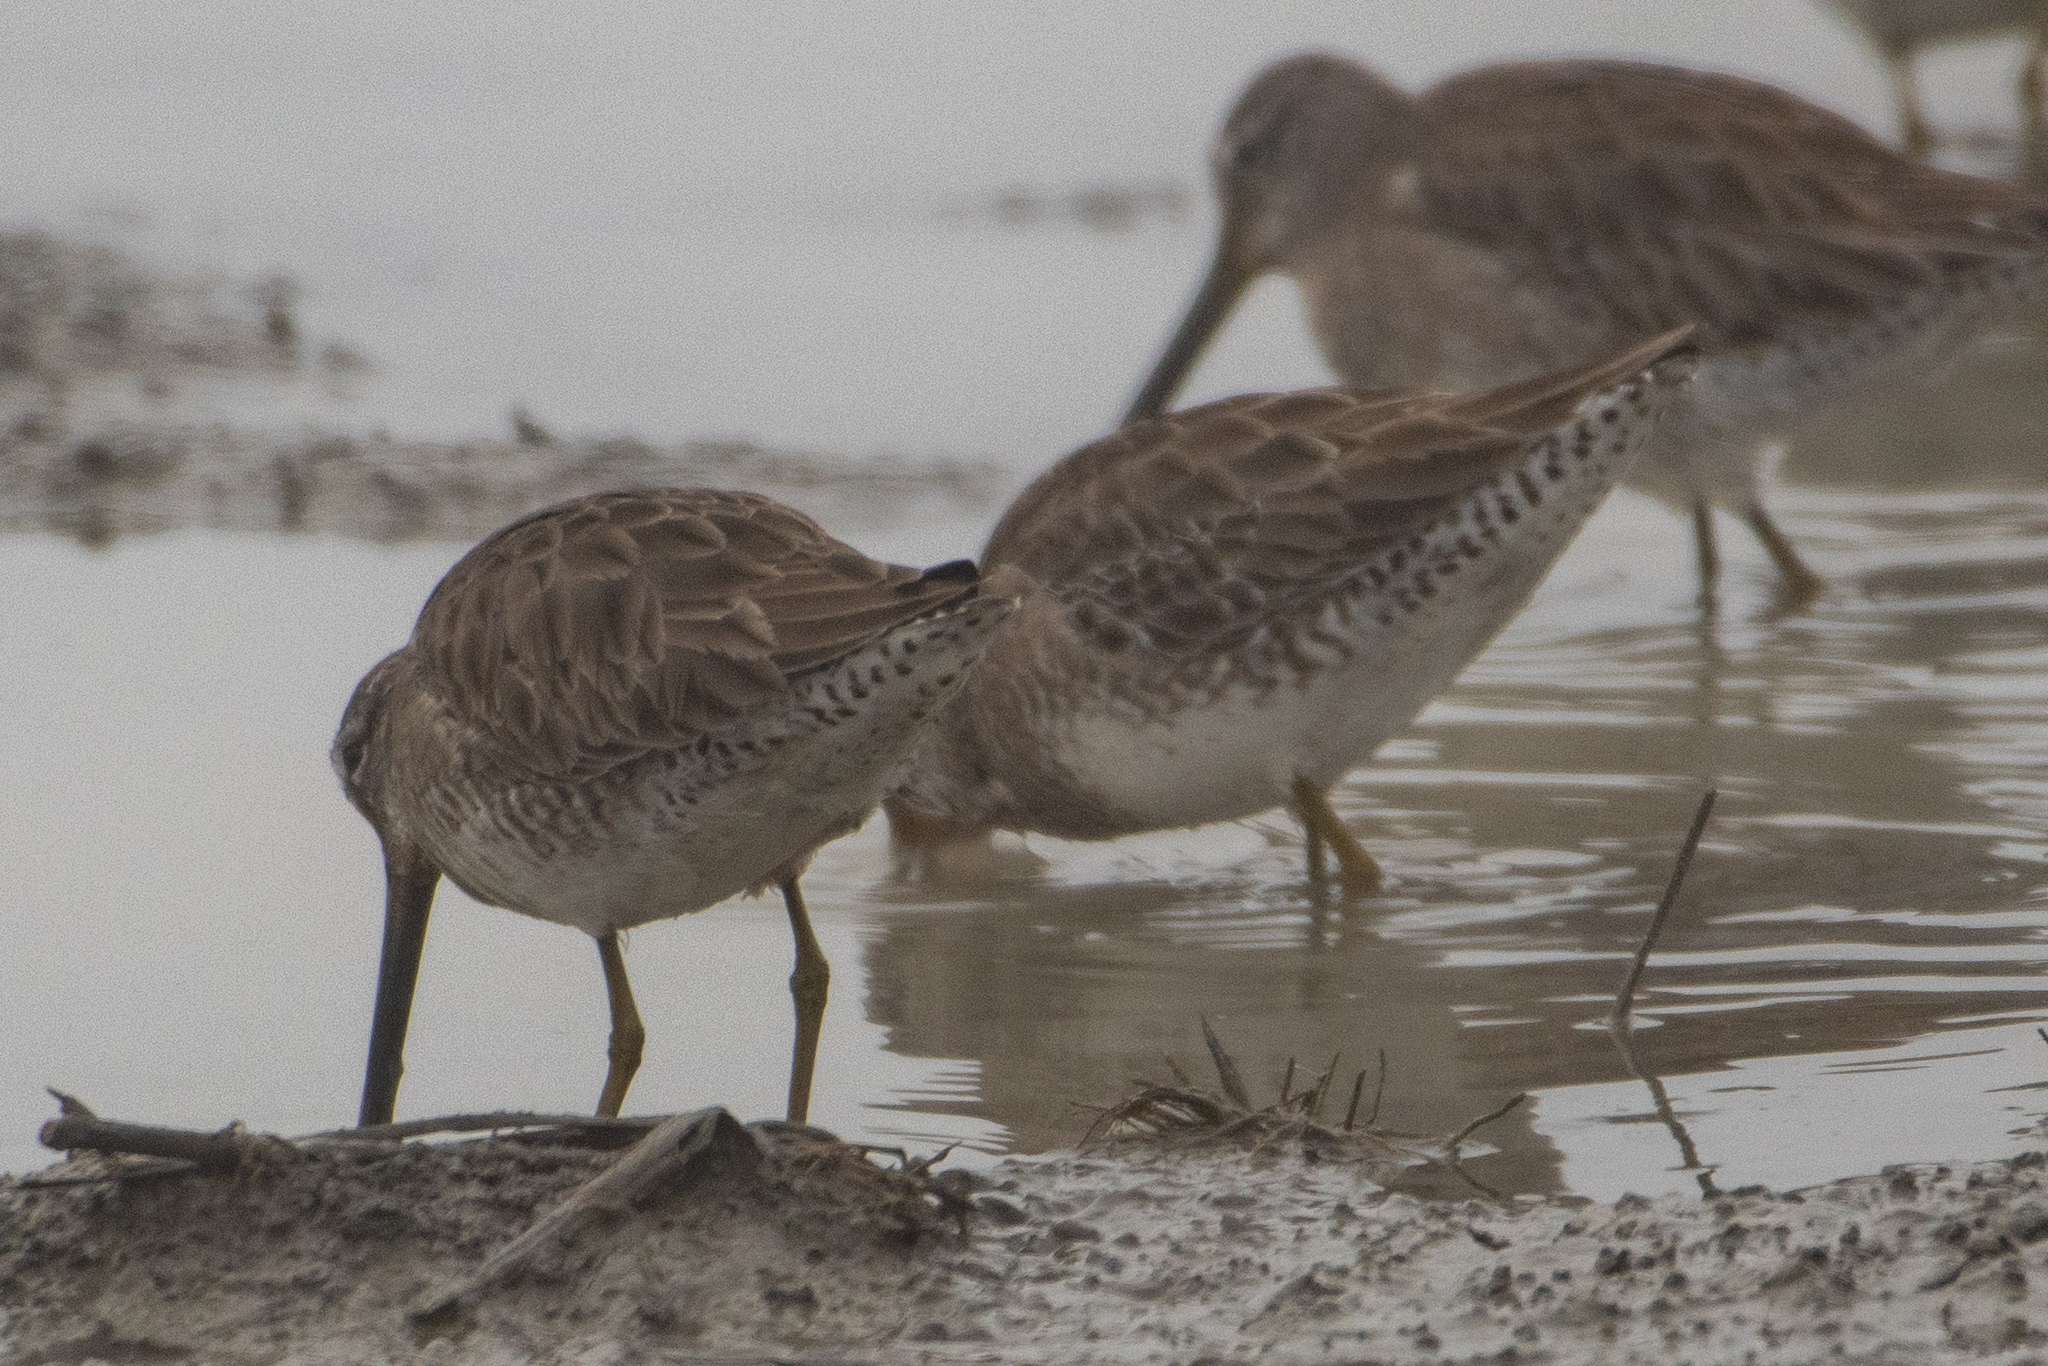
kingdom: Animalia
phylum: Chordata
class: Aves
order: Charadriiformes
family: Scolopacidae
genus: Limnodromus
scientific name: Limnodromus scolopaceus
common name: Long-billed dowitcher
